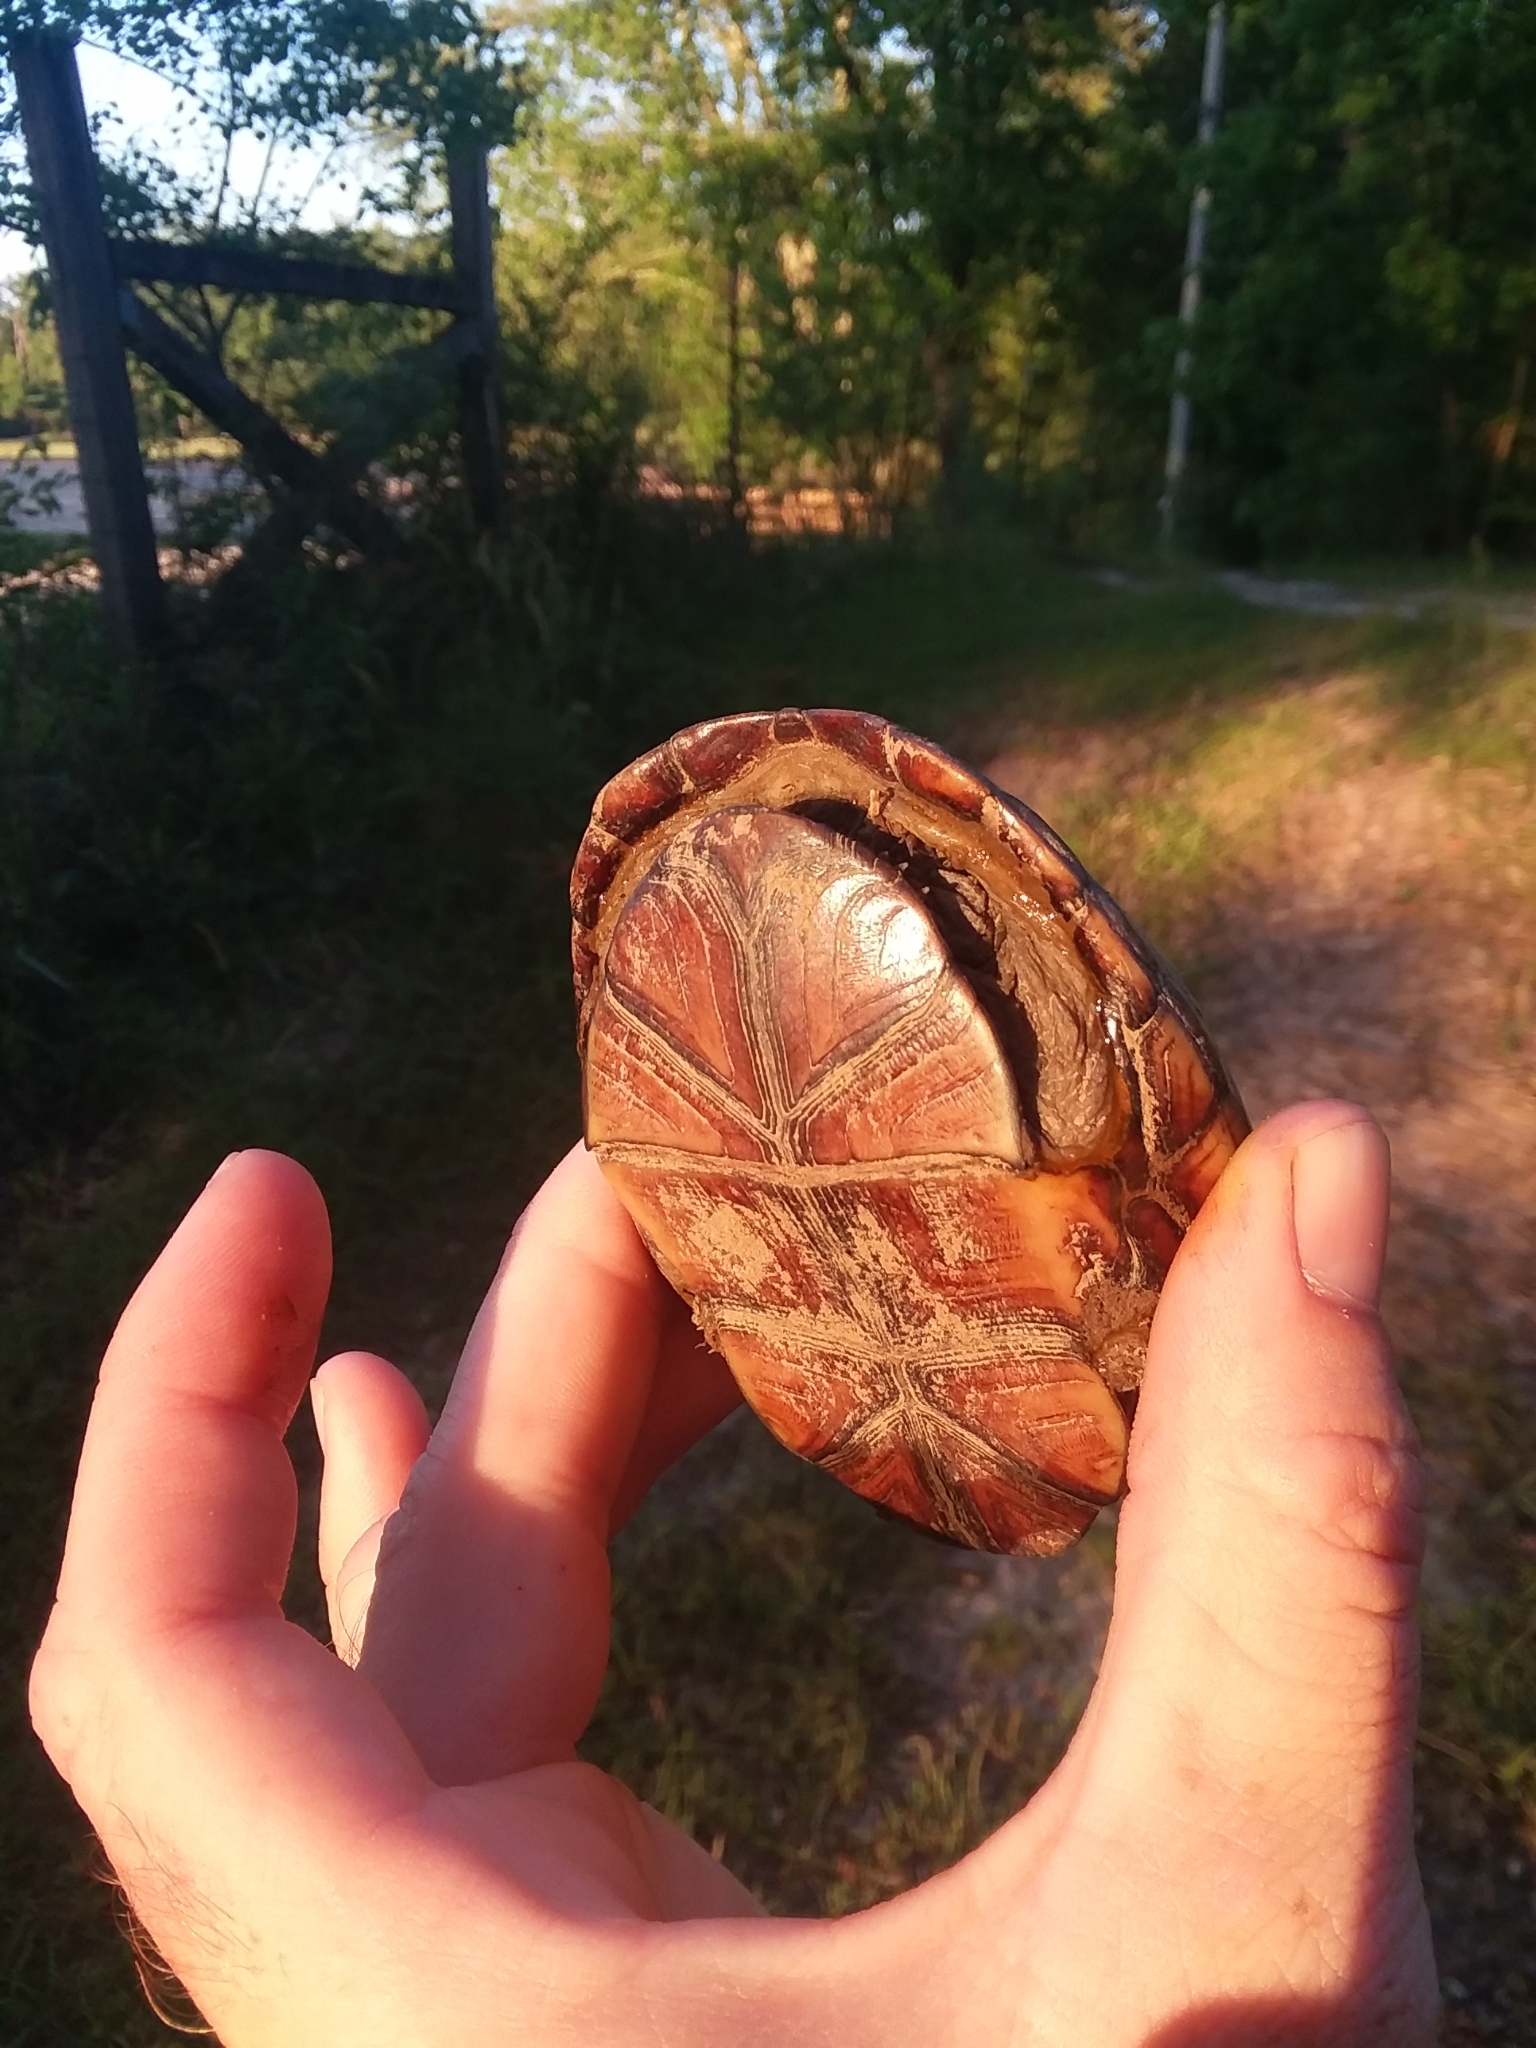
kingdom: Animalia
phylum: Chordata
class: Testudines
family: Kinosternidae
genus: Kinosternon
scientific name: Kinosternon subrubrum
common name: Eastern mud turtle
